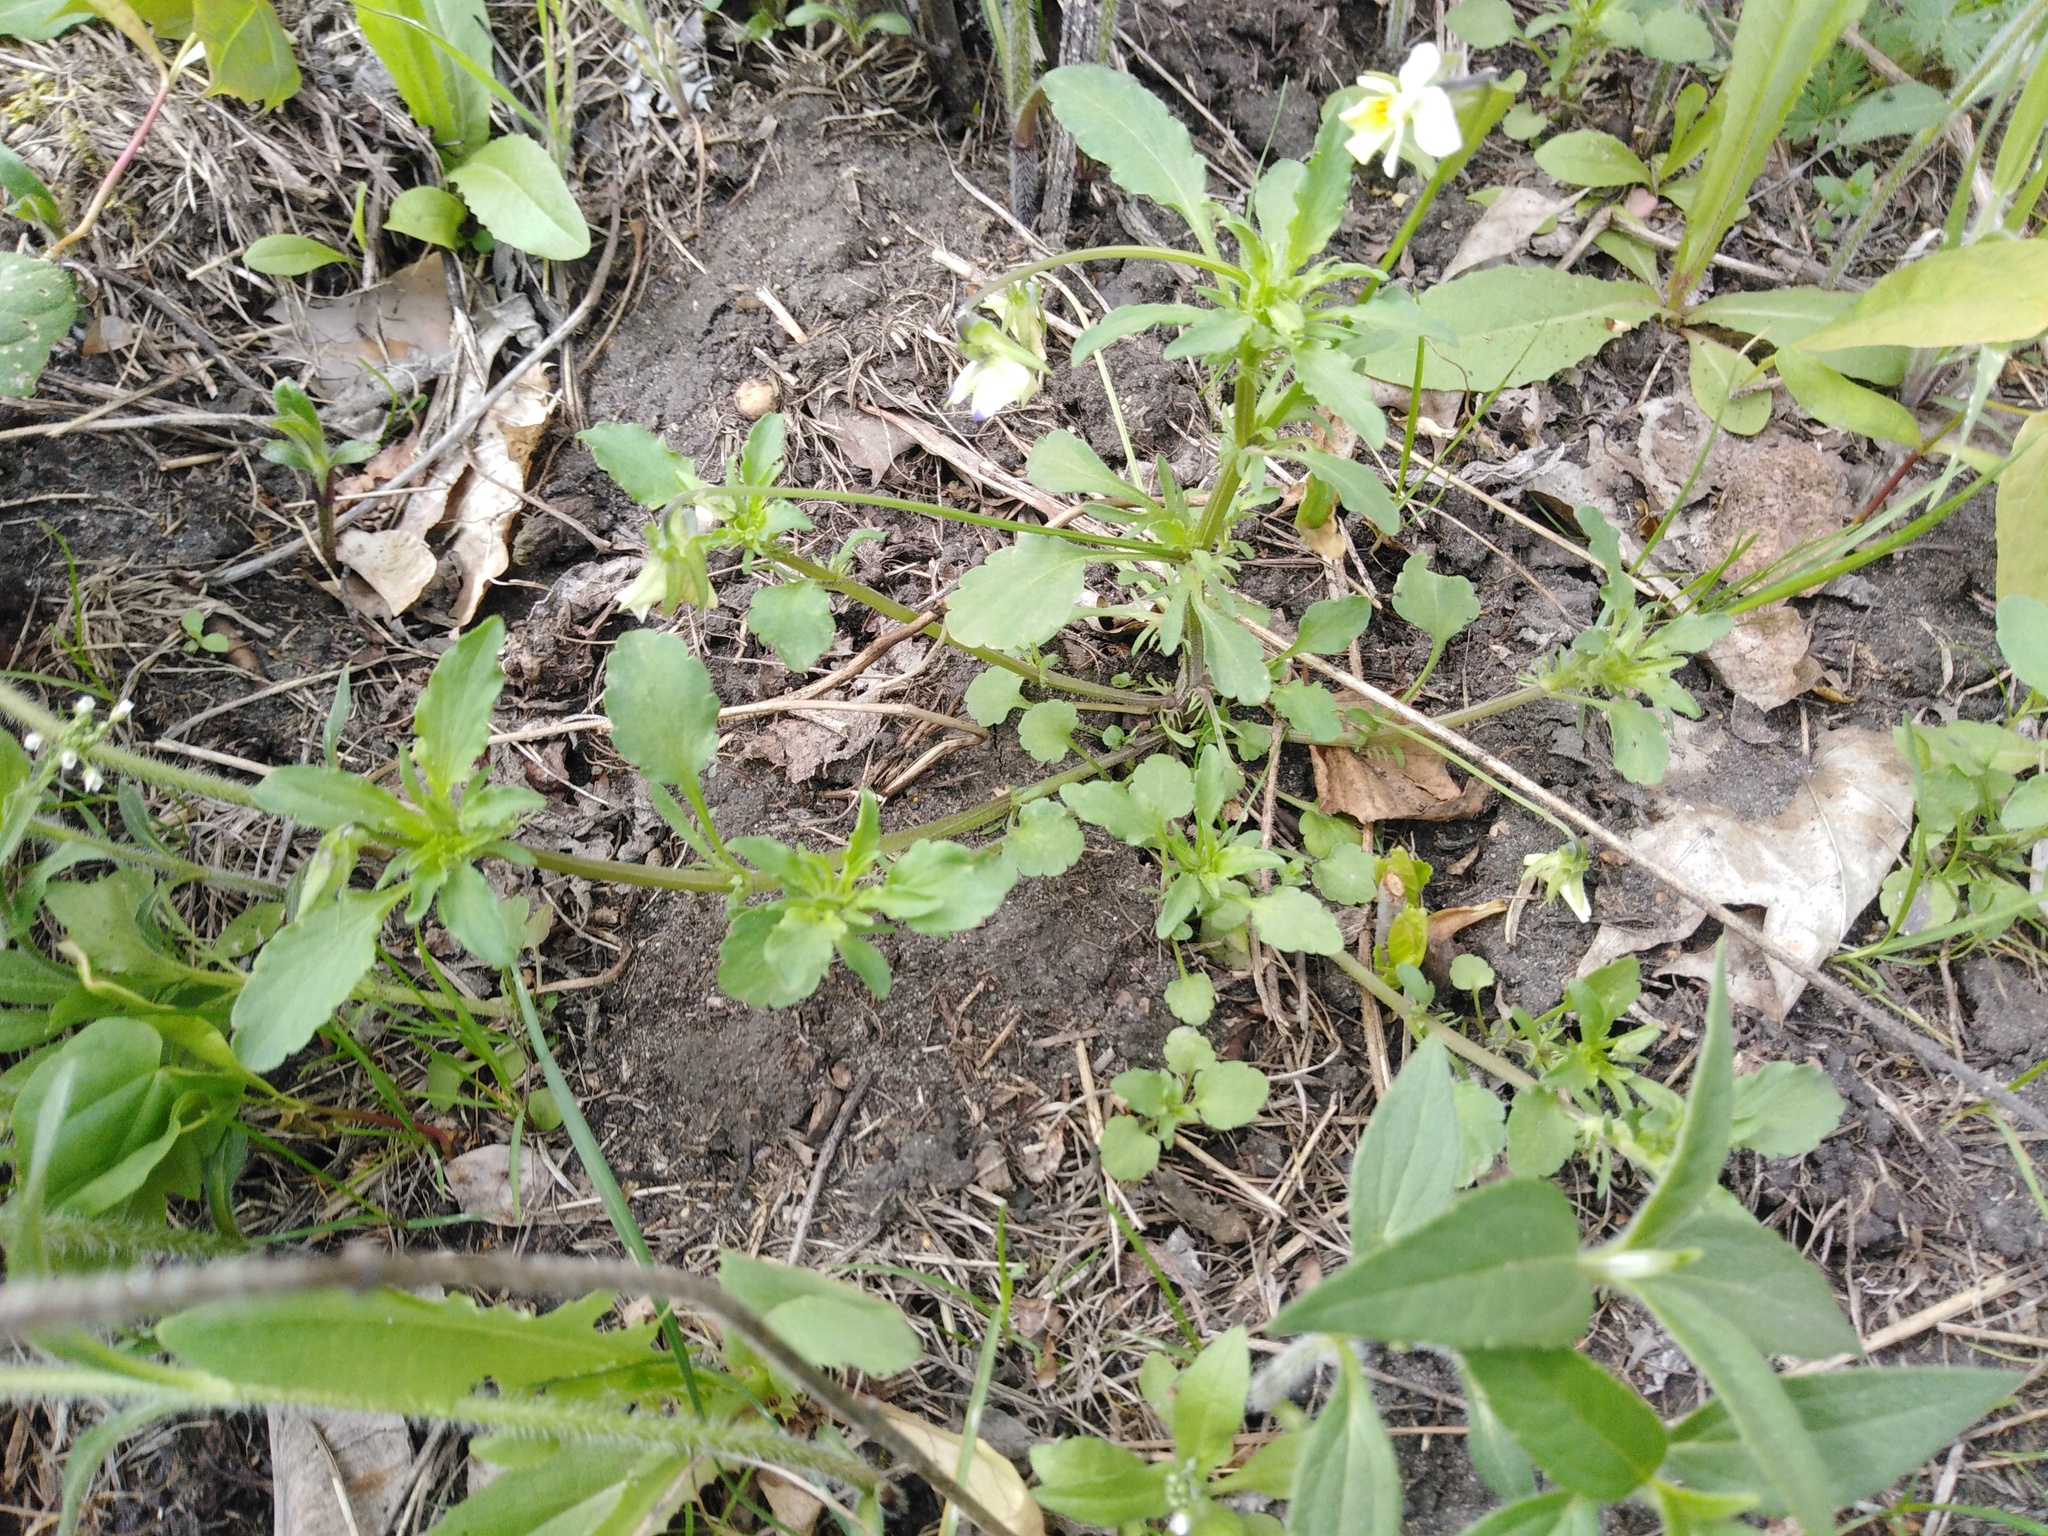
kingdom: Plantae
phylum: Tracheophyta
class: Magnoliopsida
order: Malpighiales
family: Violaceae
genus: Viola
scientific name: Viola arvensis
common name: Field pansy
